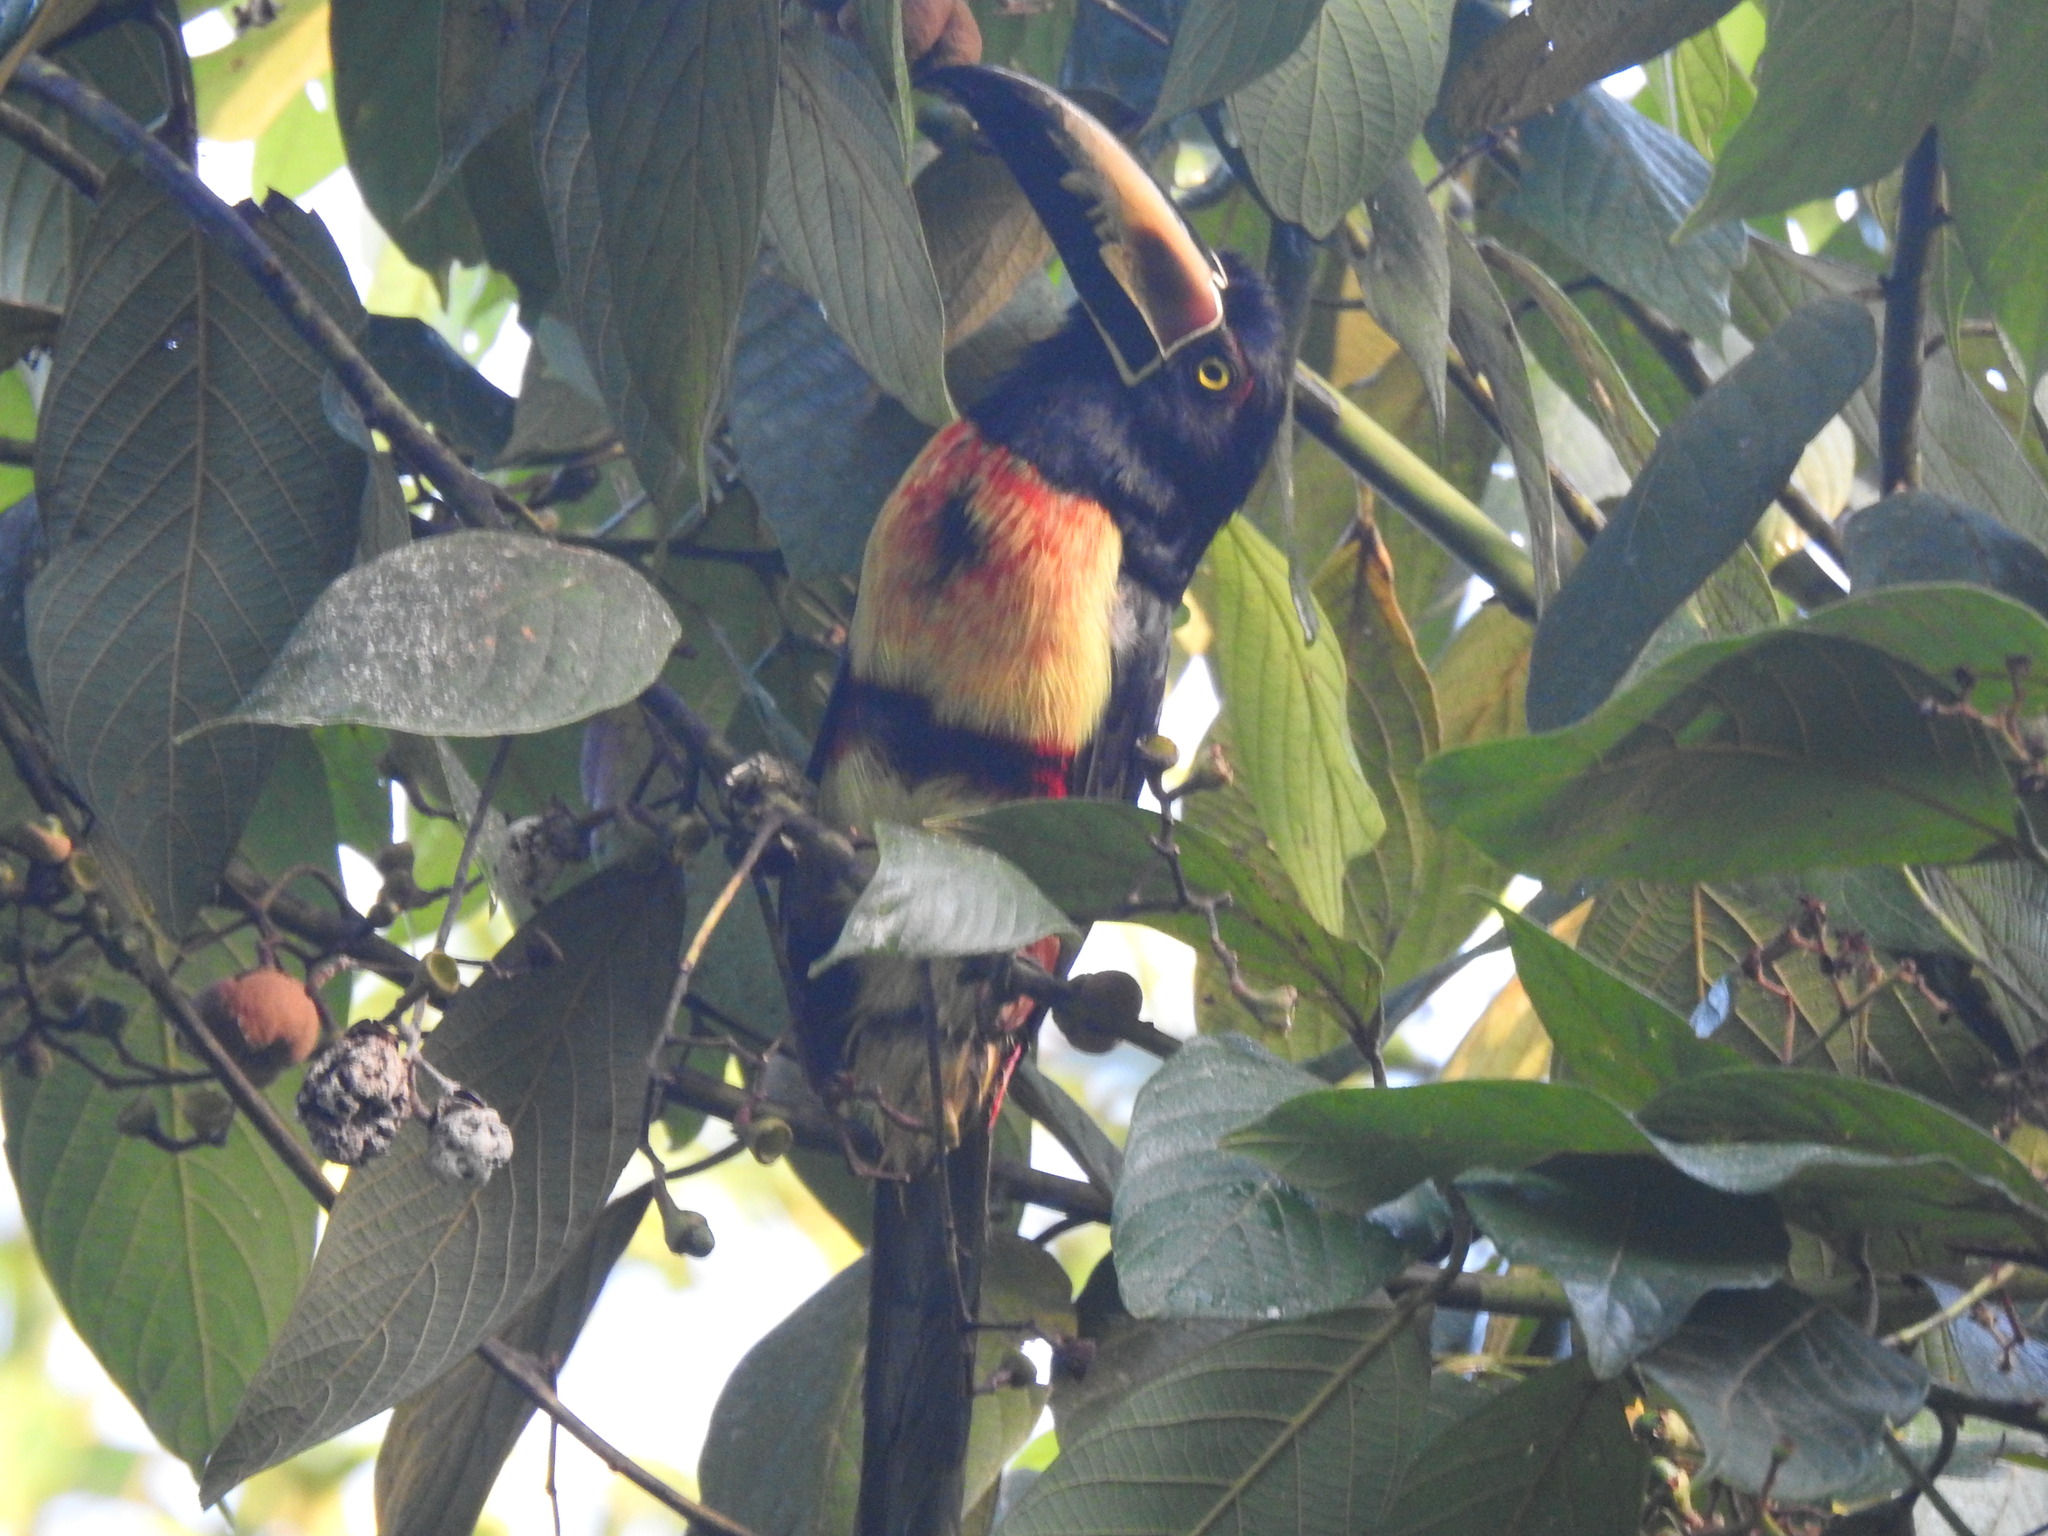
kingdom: Animalia
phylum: Chordata
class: Aves
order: Piciformes
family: Ramphastidae
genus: Pteroglossus
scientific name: Pteroglossus torquatus
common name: Collared aracari
